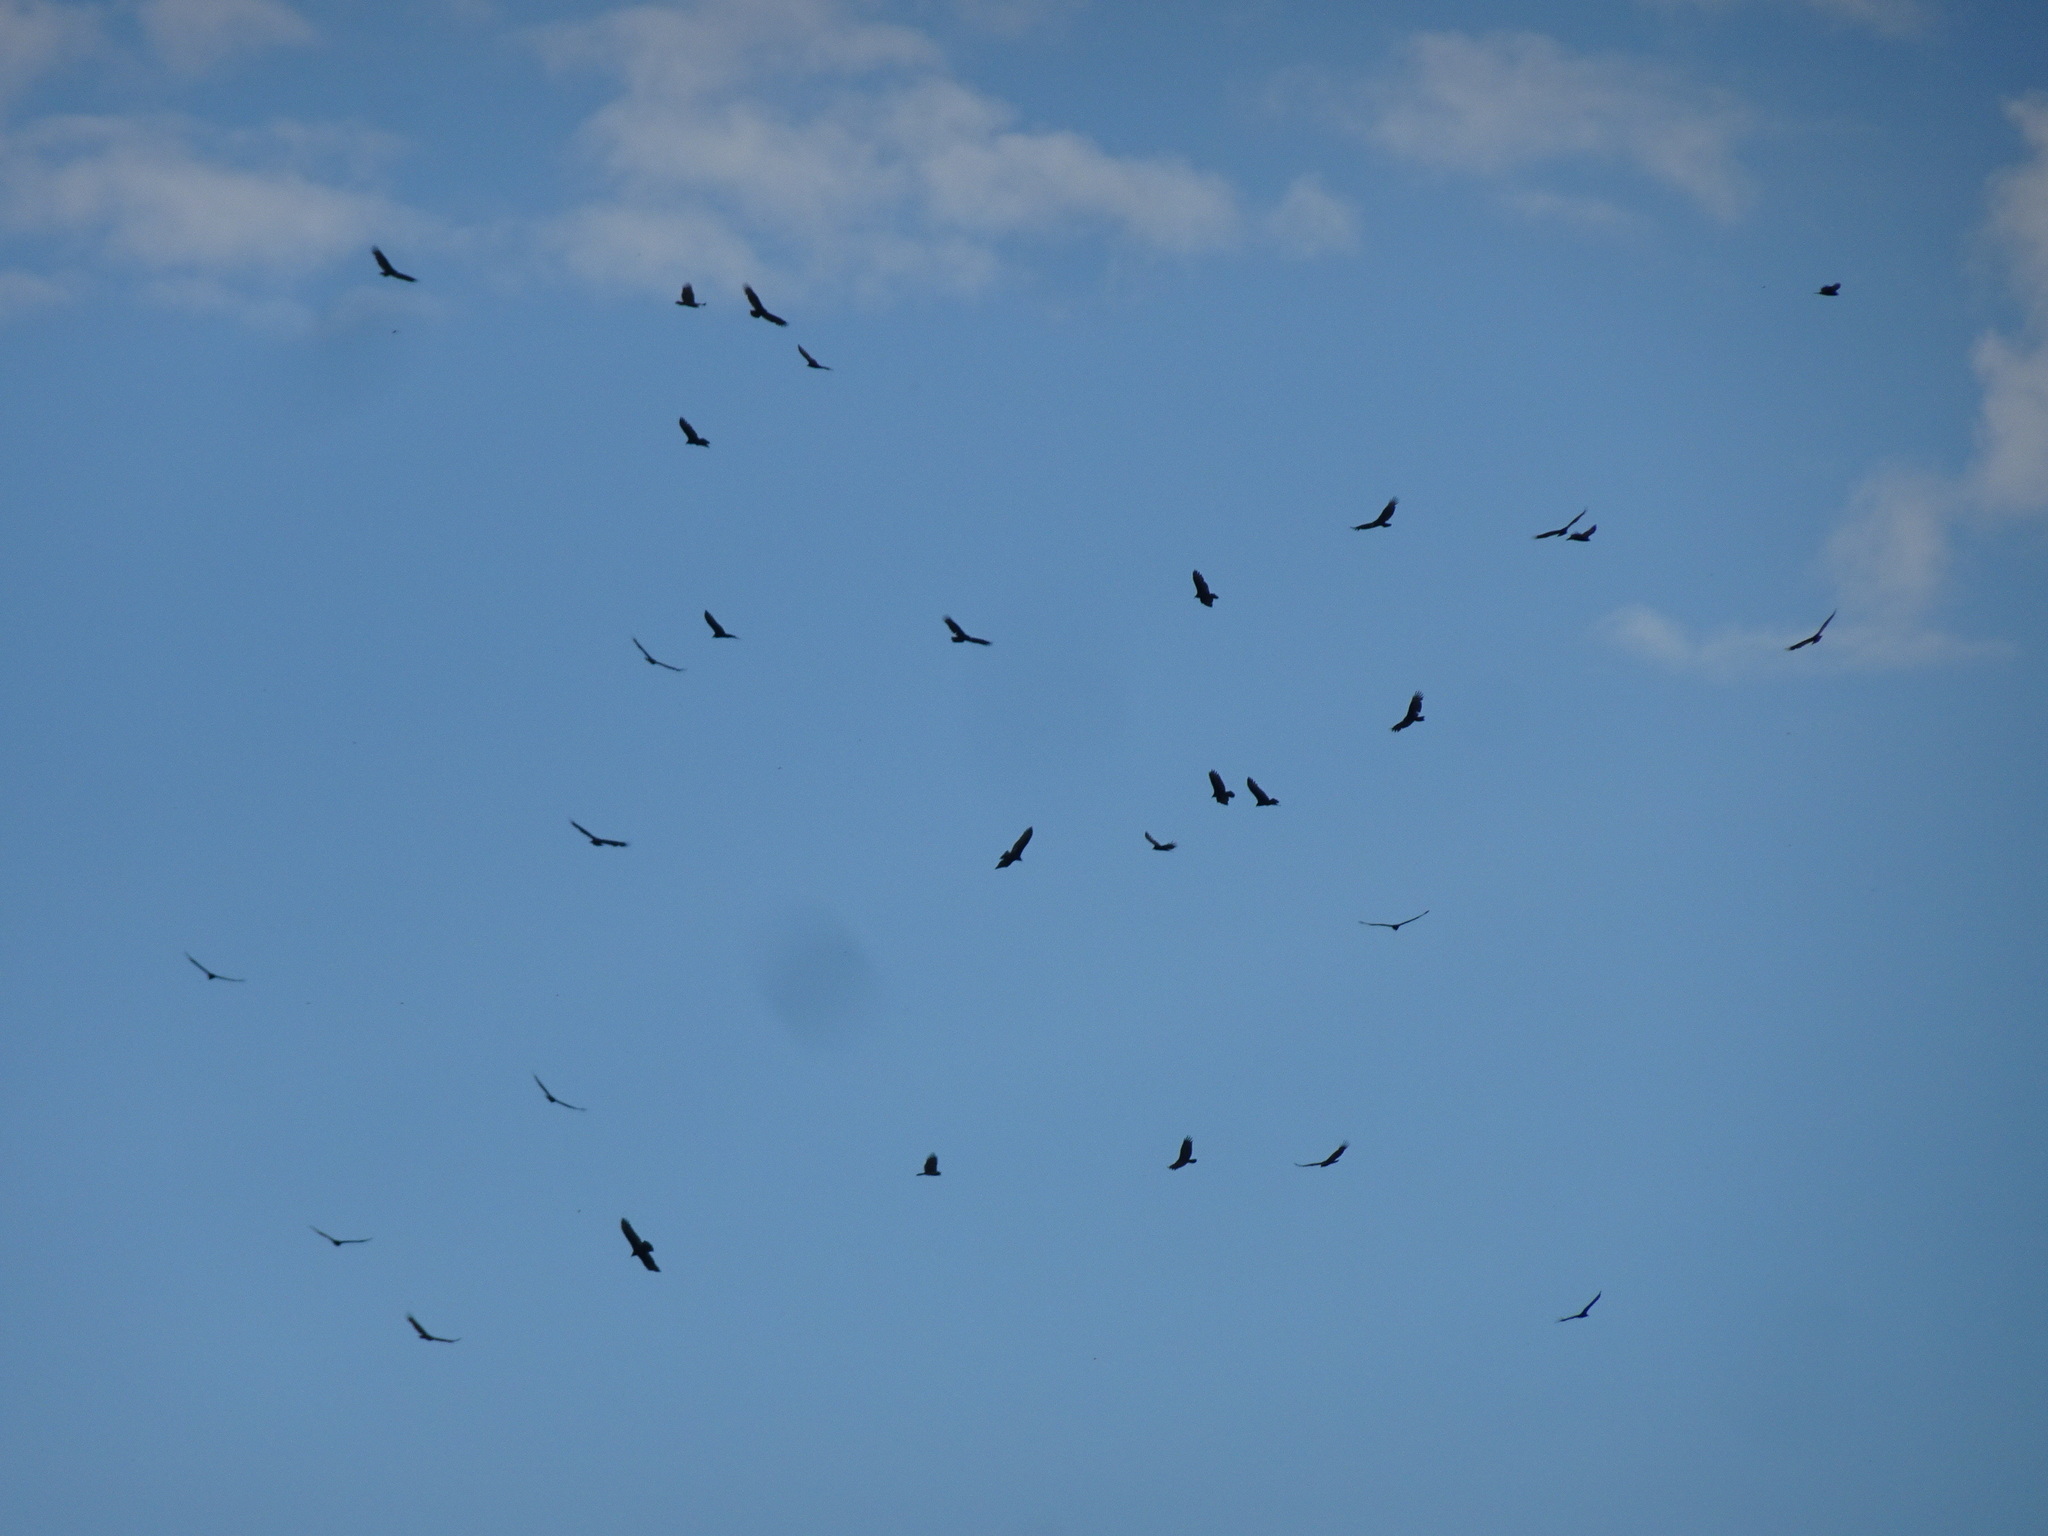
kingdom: Animalia
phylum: Chordata
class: Aves
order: Accipitriformes
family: Cathartidae
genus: Cathartes
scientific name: Cathartes aura
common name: Turkey vulture
